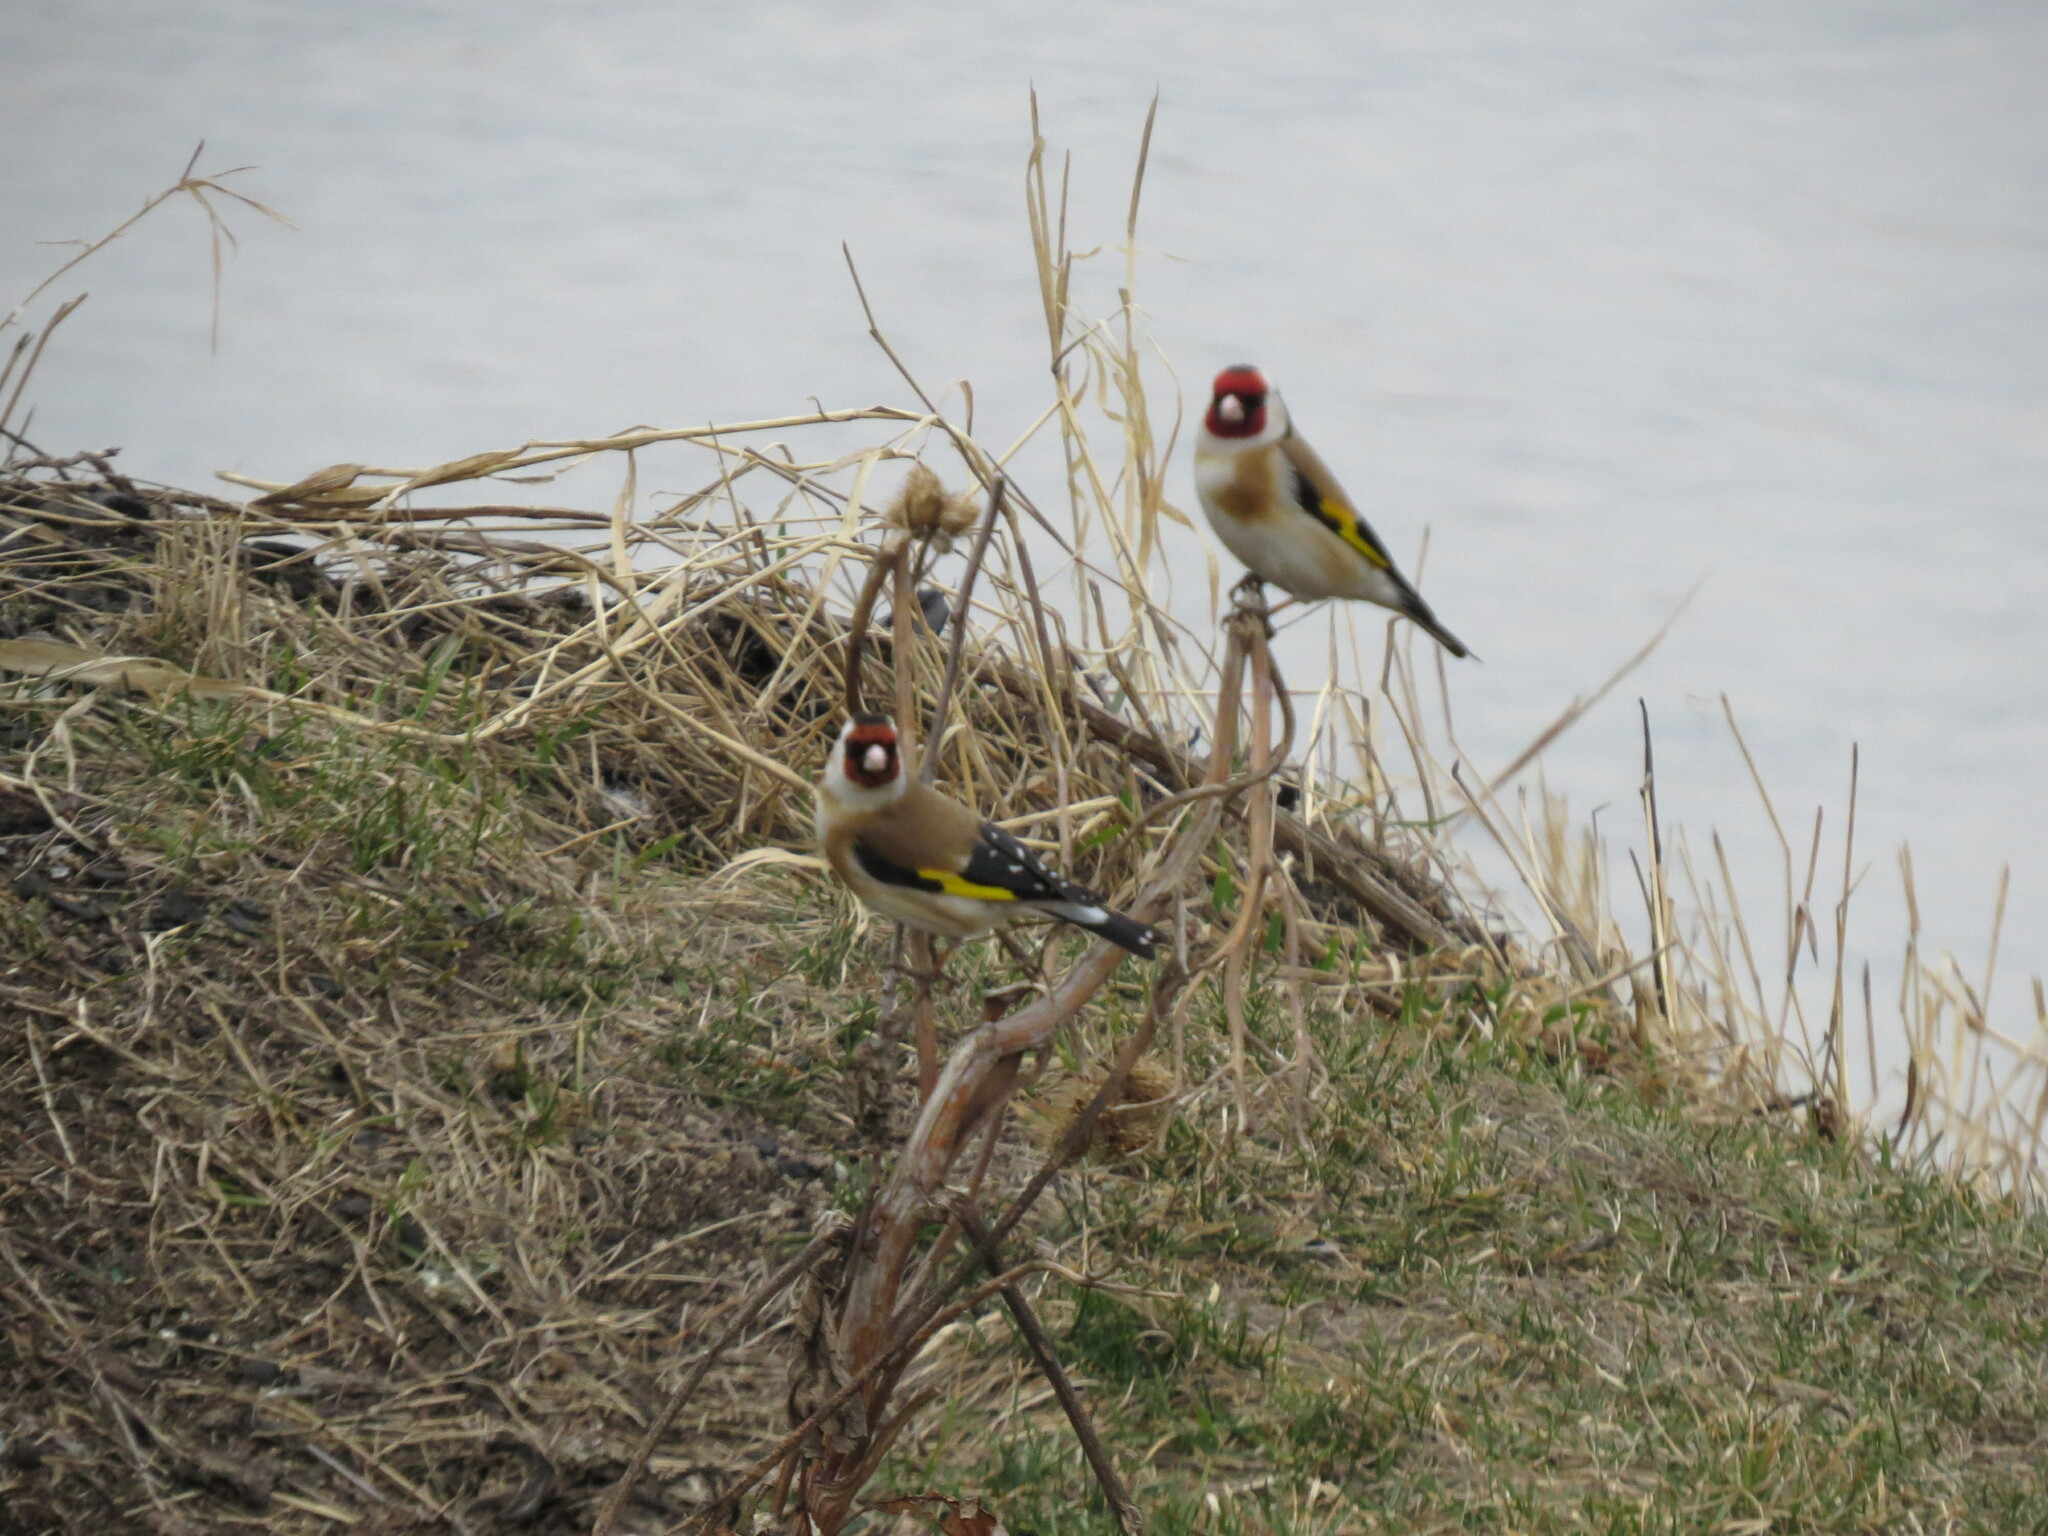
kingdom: Animalia
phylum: Chordata
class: Aves
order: Passeriformes
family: Fringillidae
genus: Carduelis
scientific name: Carduelis carduelis
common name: European goldfinch
